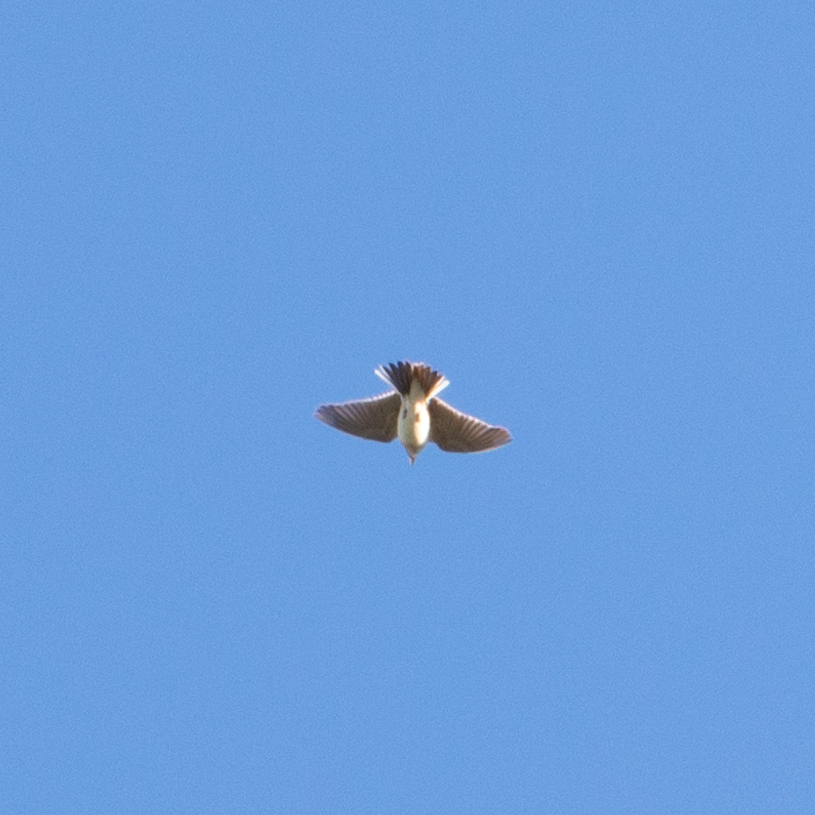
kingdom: Animalia
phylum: Chordata
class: Aves
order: Passeriformes
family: Alaudidae
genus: Alauda
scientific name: Alauda arvensis
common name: Eurasian skylark
